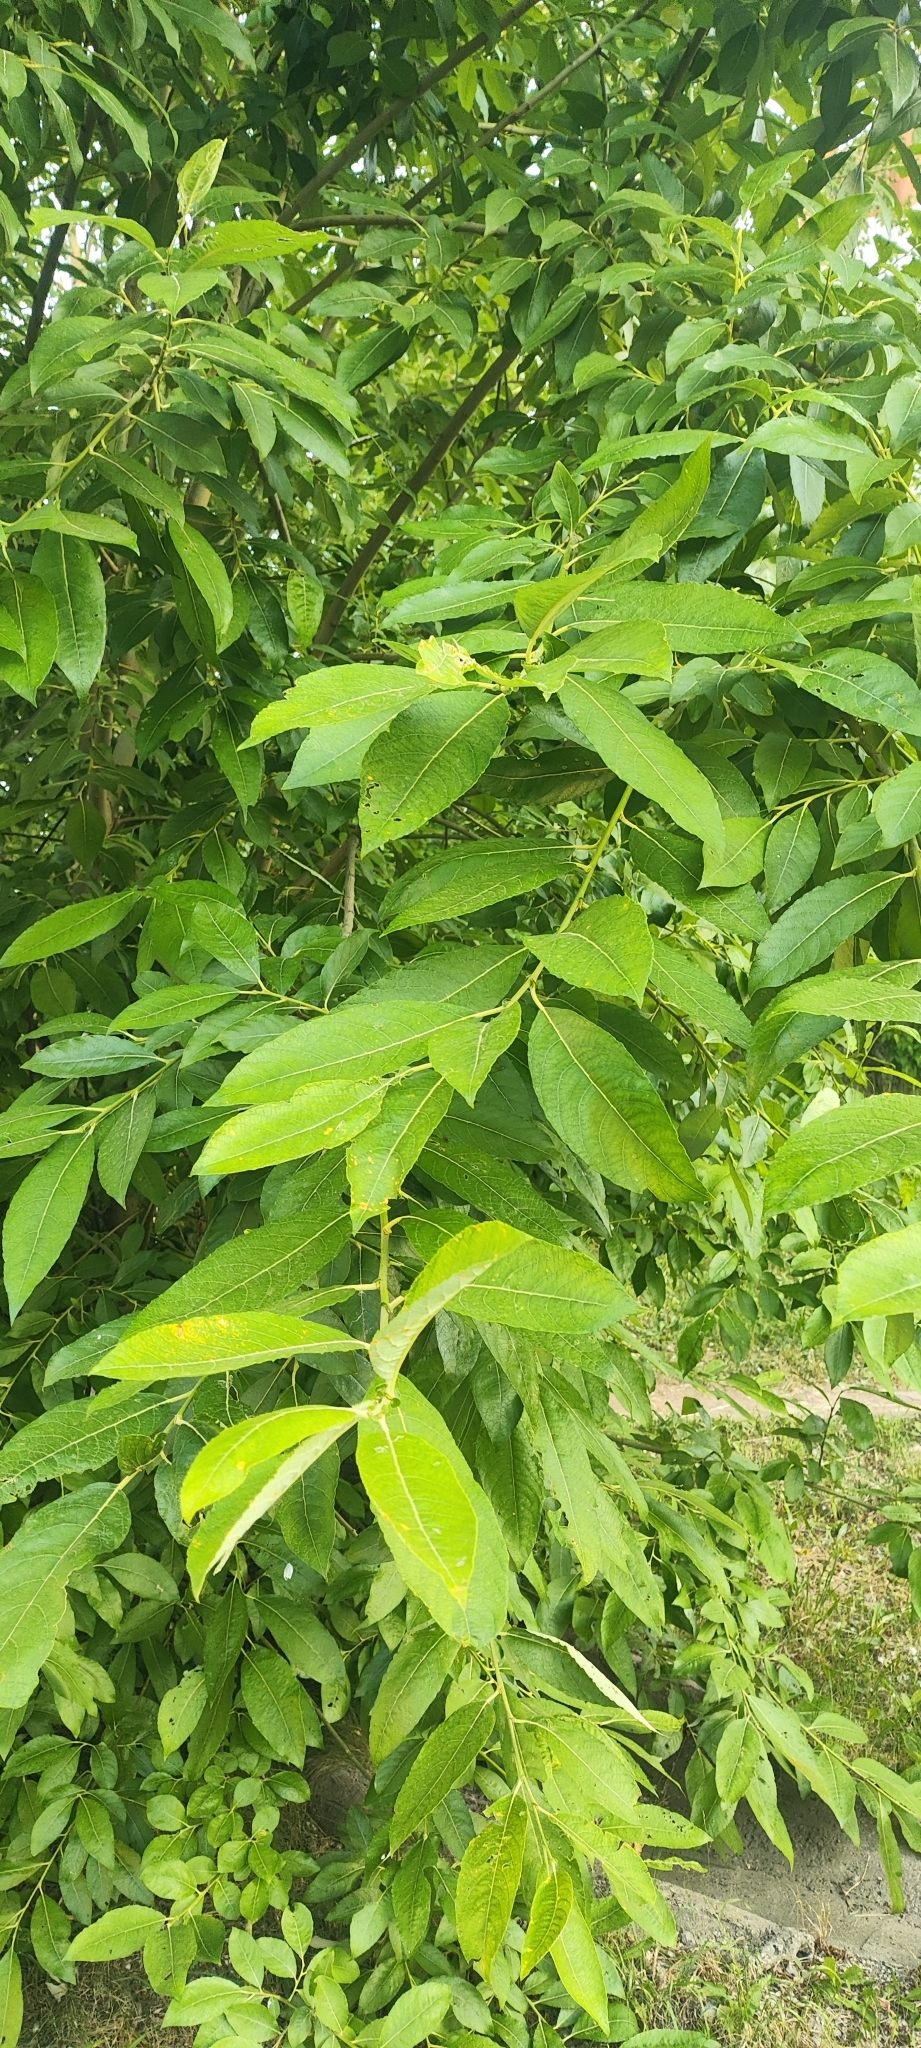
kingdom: Plantae
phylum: Tracheophyta
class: Magnoliopsida
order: Malpighiales
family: Salicaceae
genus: Salix
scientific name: Salix caprea
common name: Goat willow
